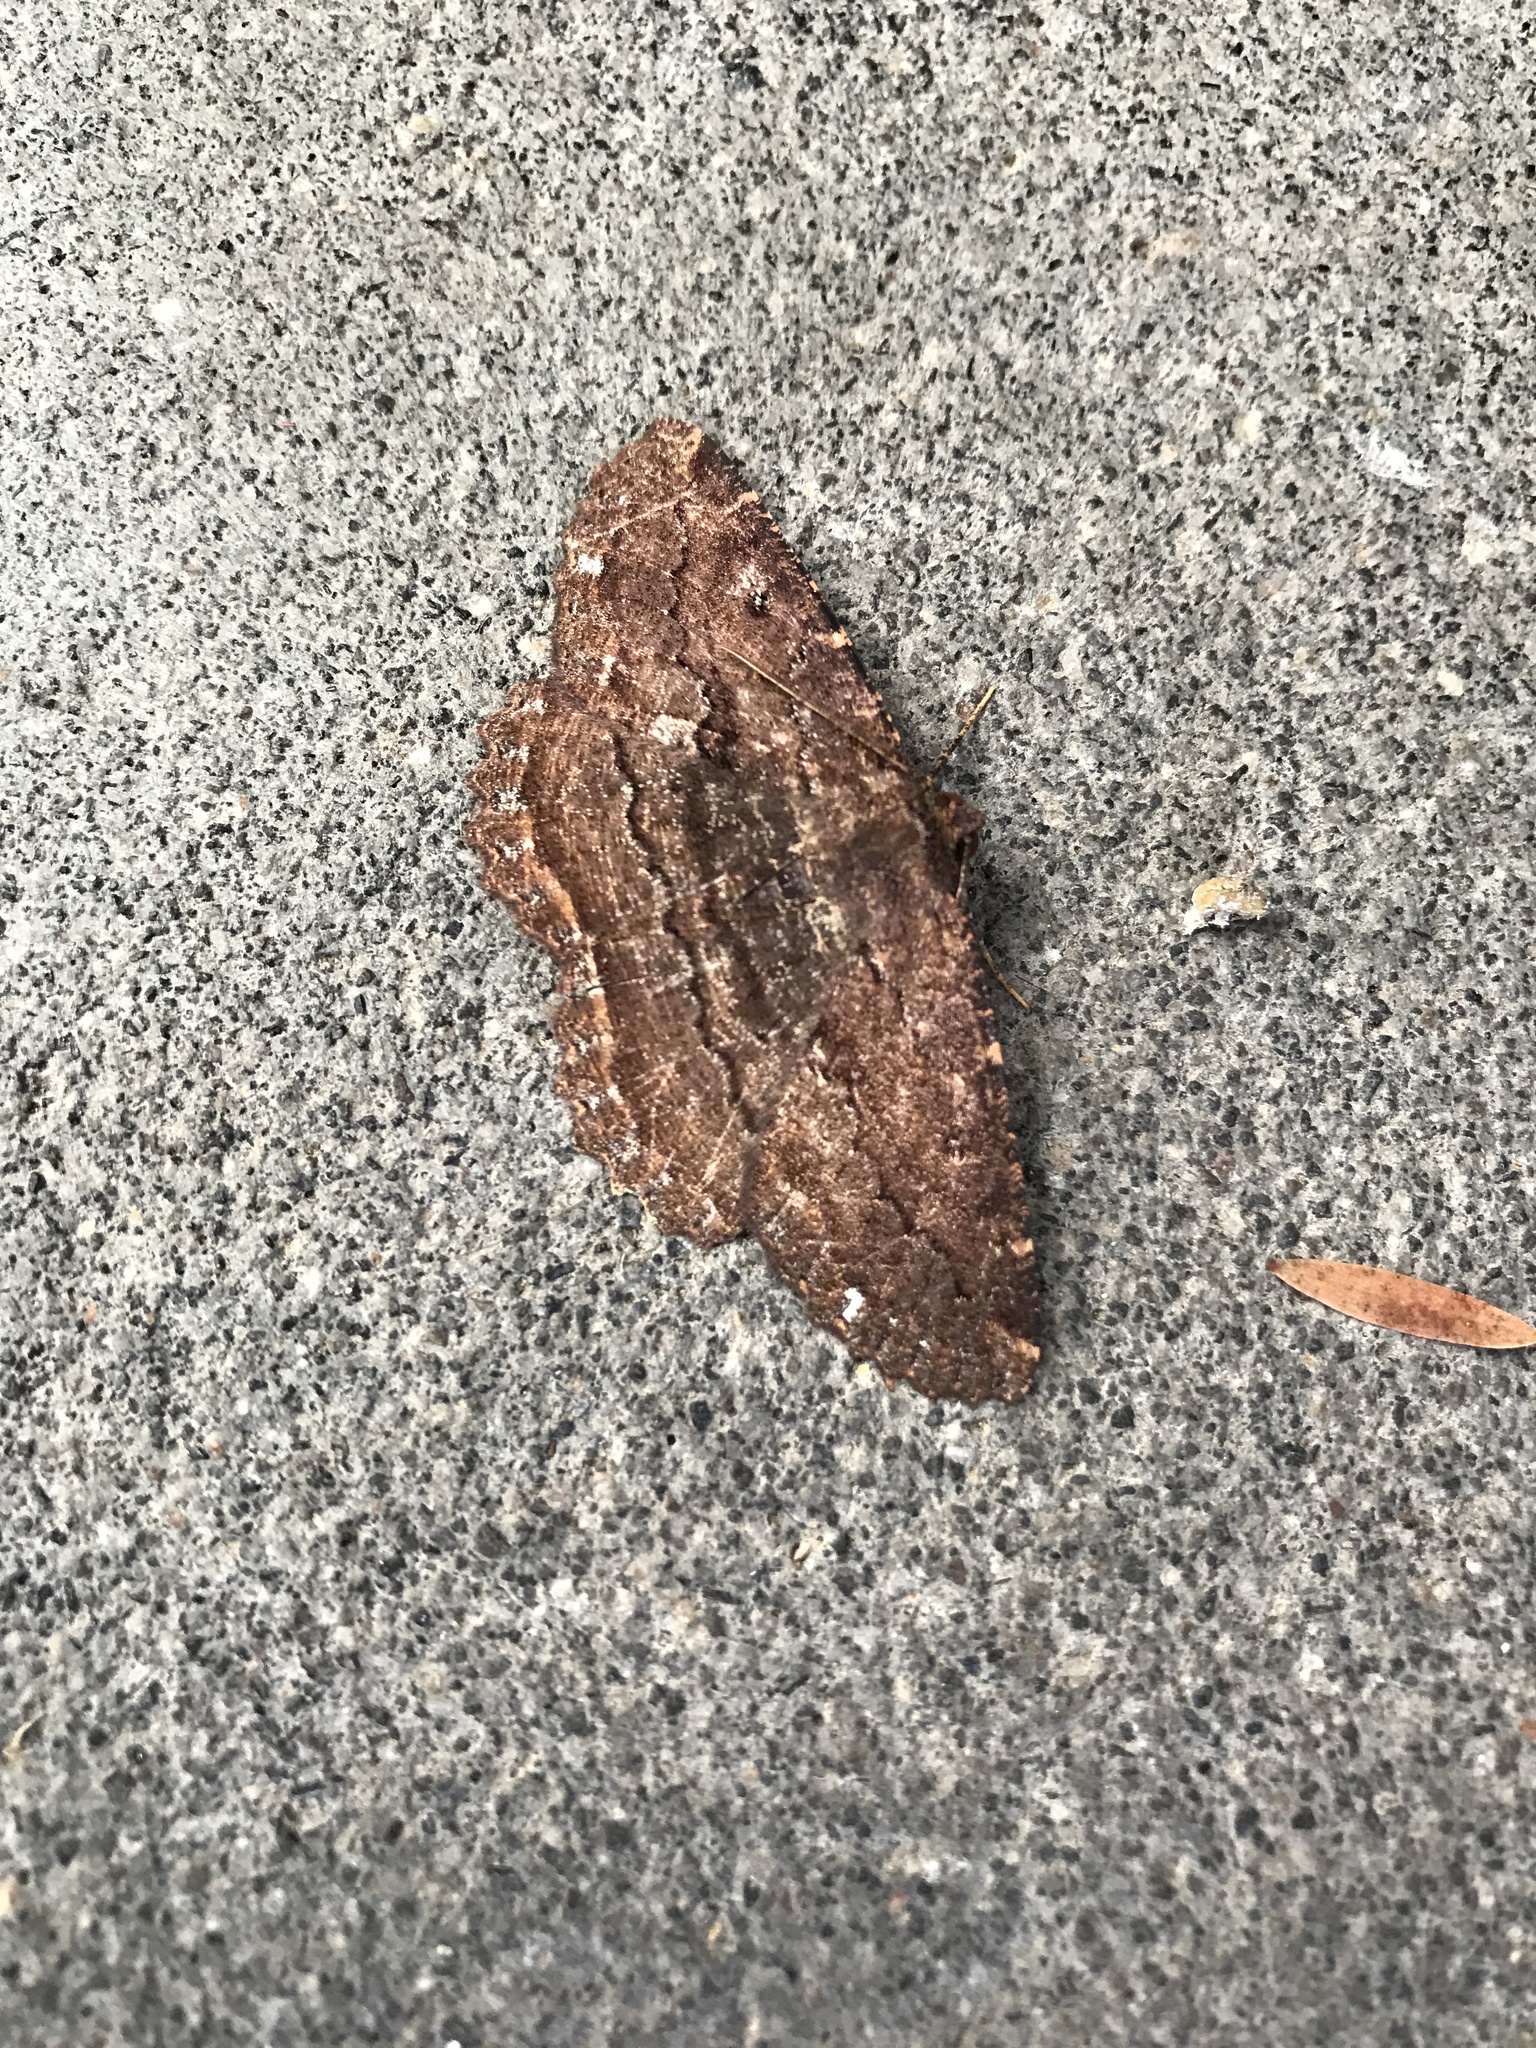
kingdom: Animalia
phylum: Arthropoda
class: Insecta
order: Lepidoptera
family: Geometridae
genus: Gellonia
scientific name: Gellonia dejectaria
